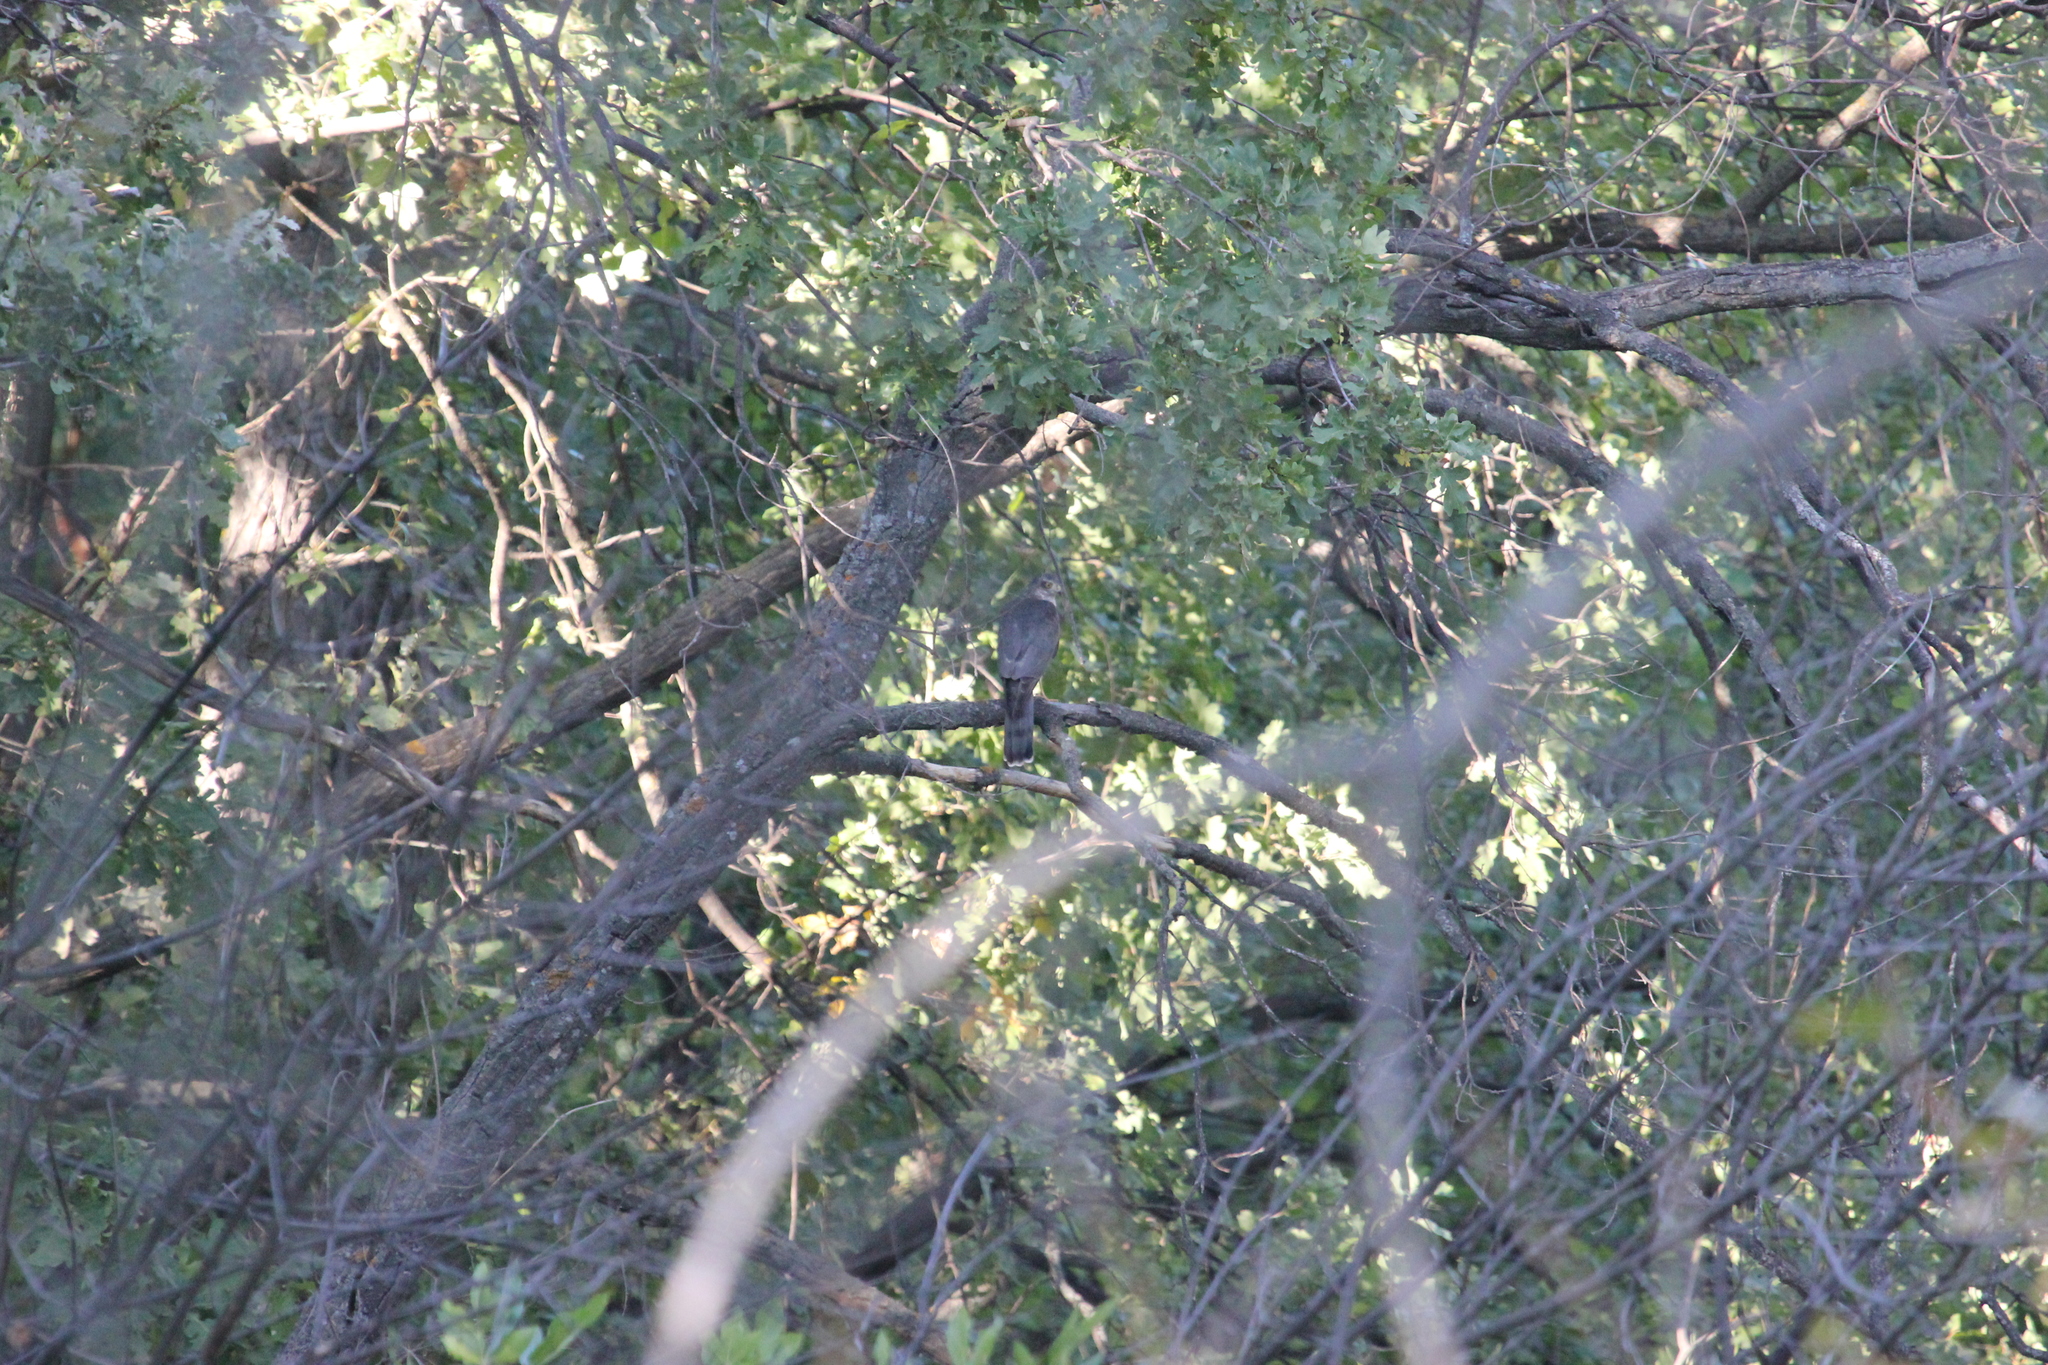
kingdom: Animalia
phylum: Chordata
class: Aves
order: Accipitriformes
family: Accipitridae
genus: Accipiter
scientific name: Accipiter nisus
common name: Eurasian sparrowhawk
